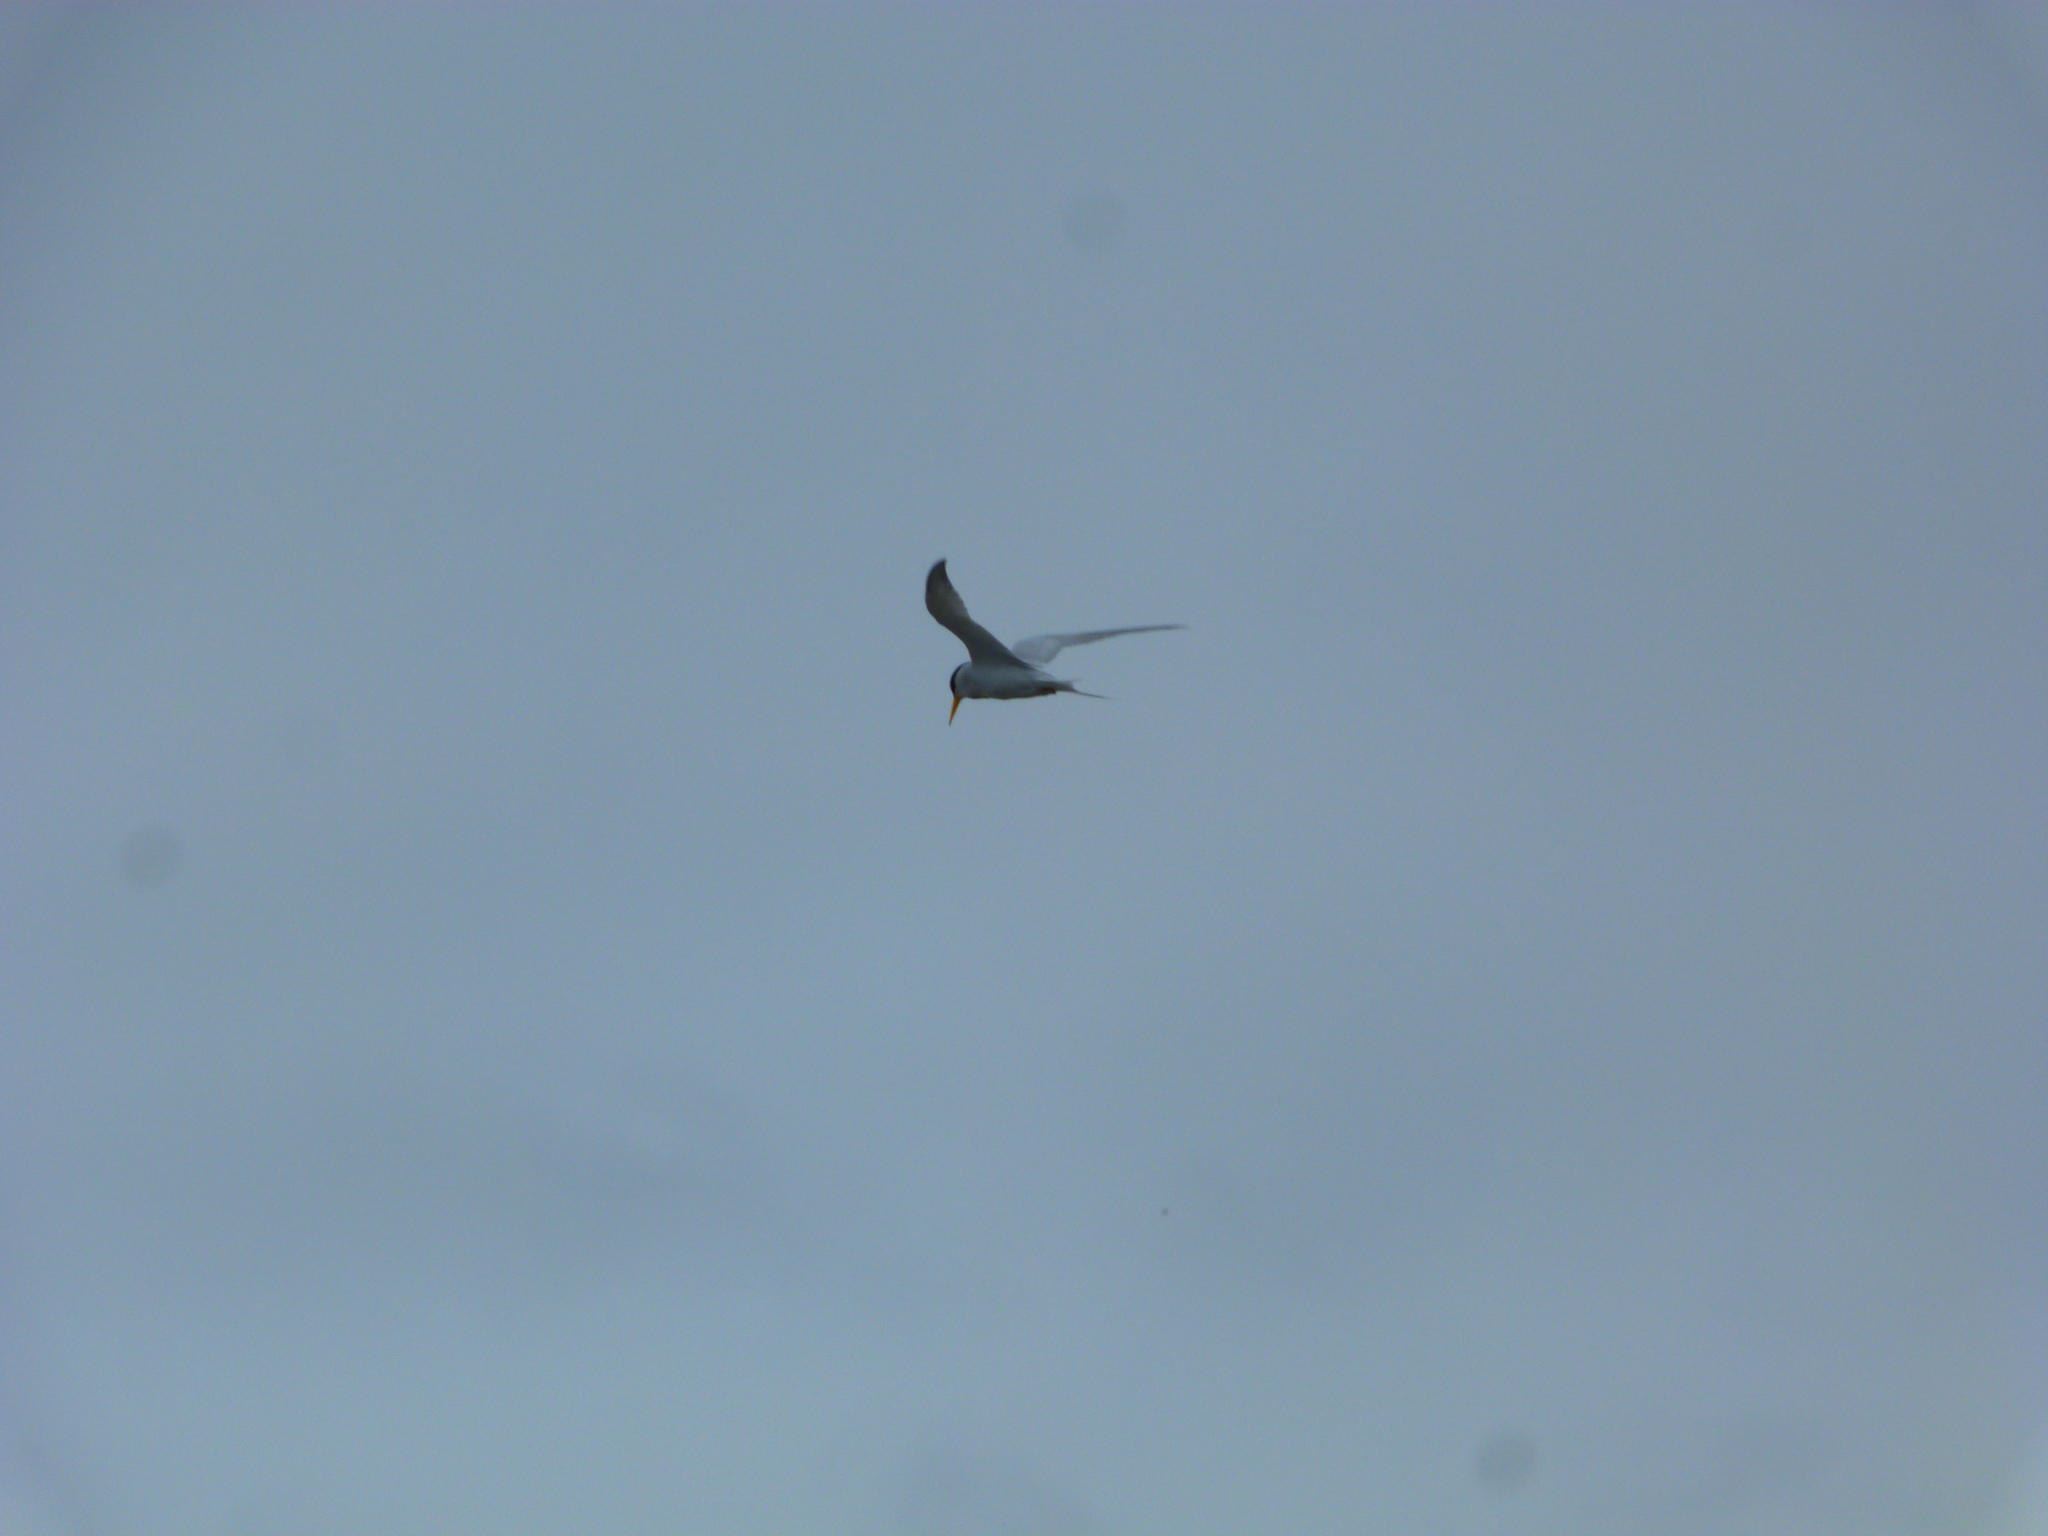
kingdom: Animalia
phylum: Chordata
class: Aves
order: Charadriiformes
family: Laridae
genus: Sternula
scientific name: Sternula antillarum
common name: Least tern
